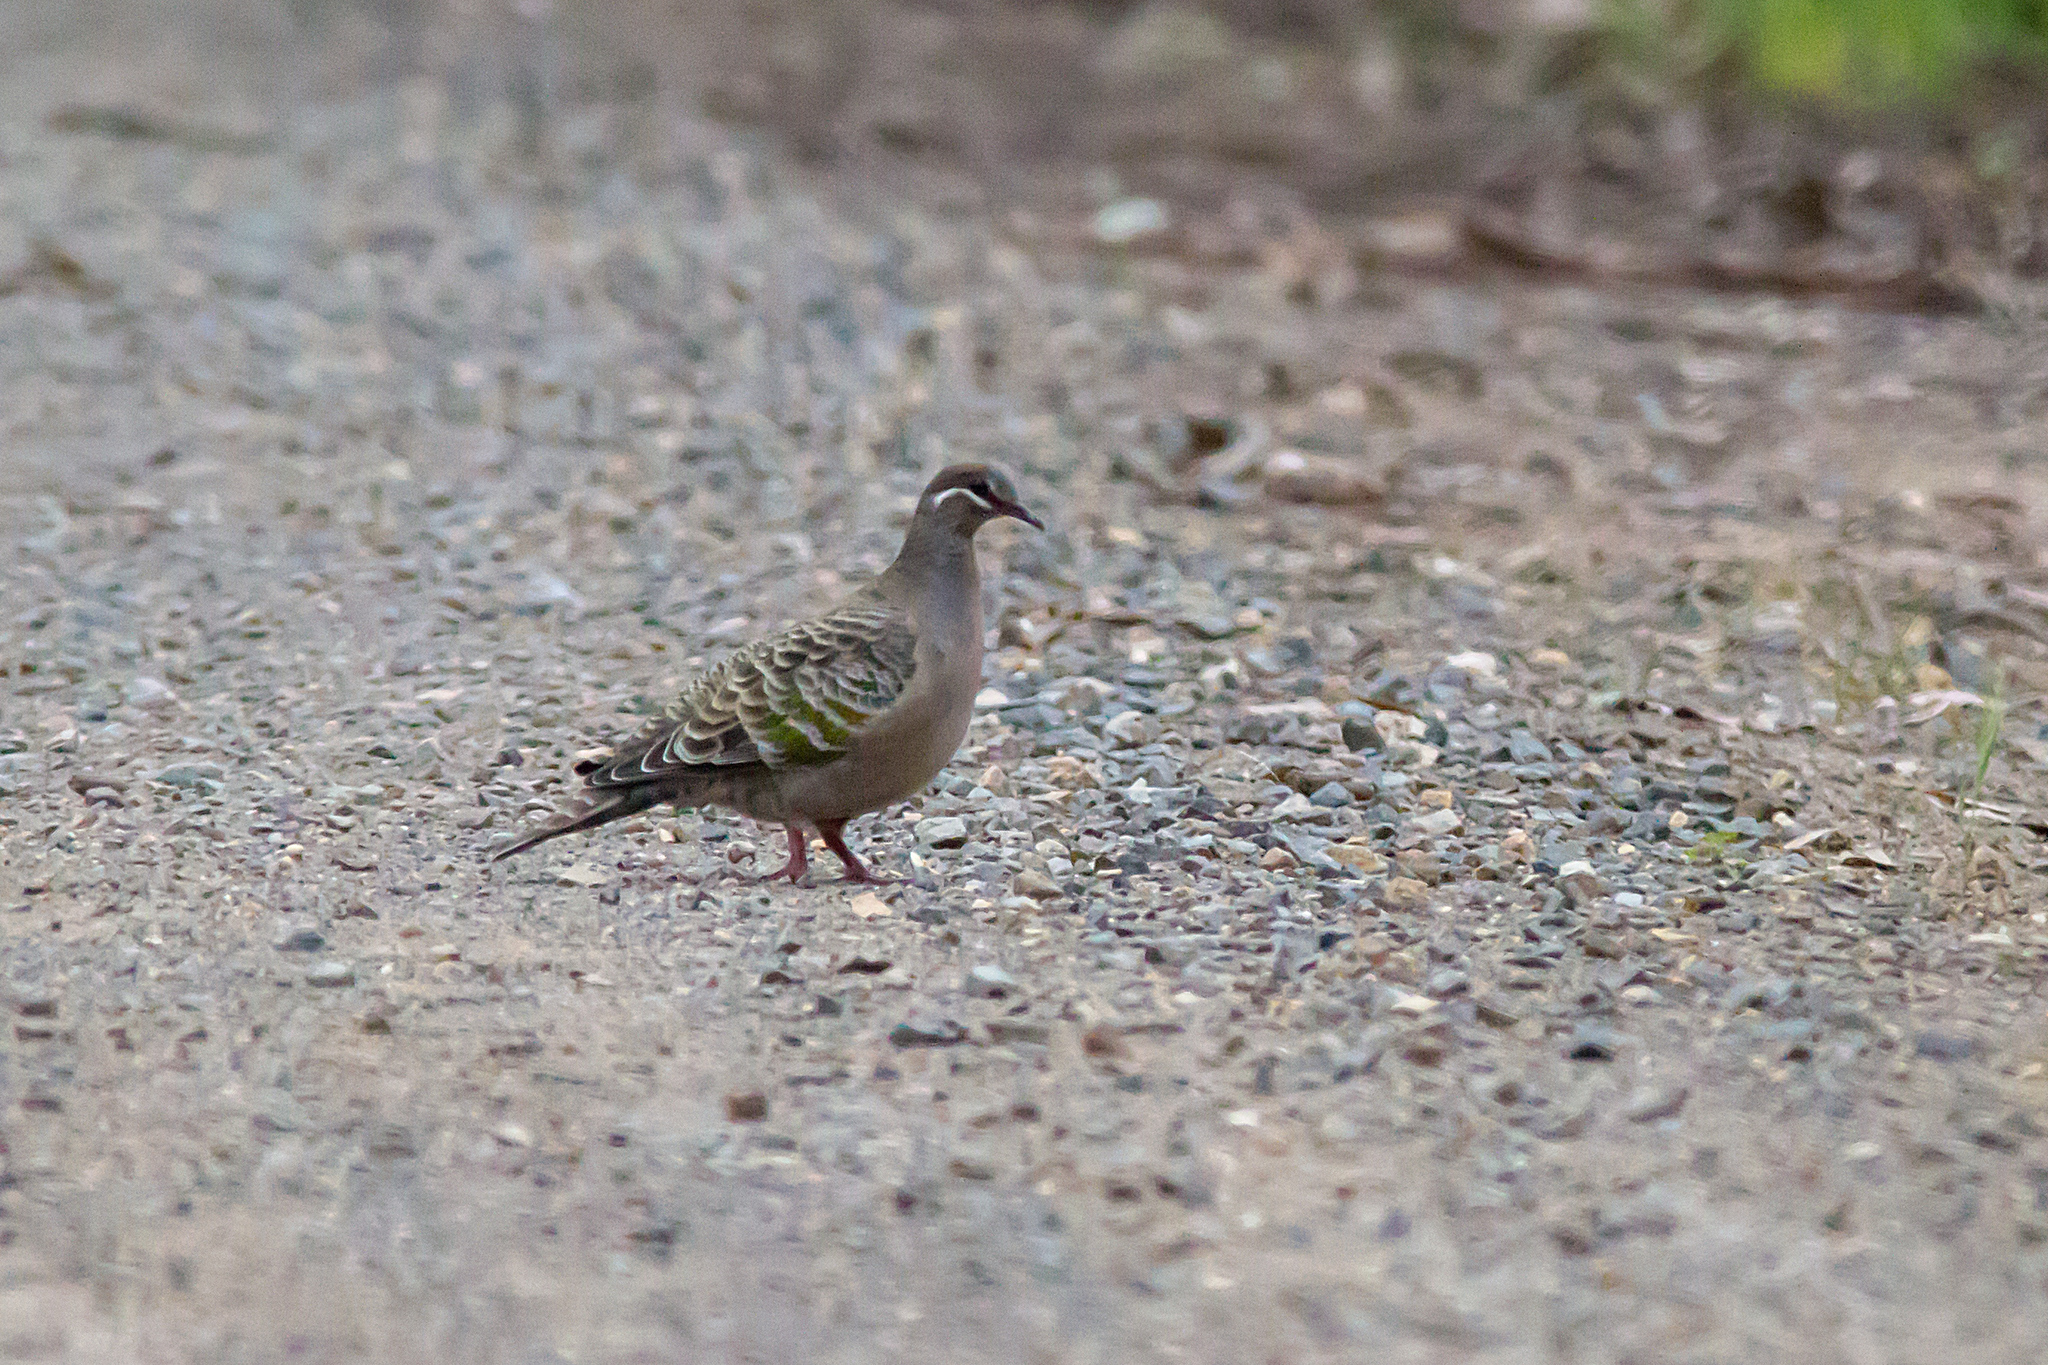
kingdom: Animalia
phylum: Chordata
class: Aves
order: Columbiformes
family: Columbidae
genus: Phaps
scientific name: Phaps chalcoptera
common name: Common bronzewing
